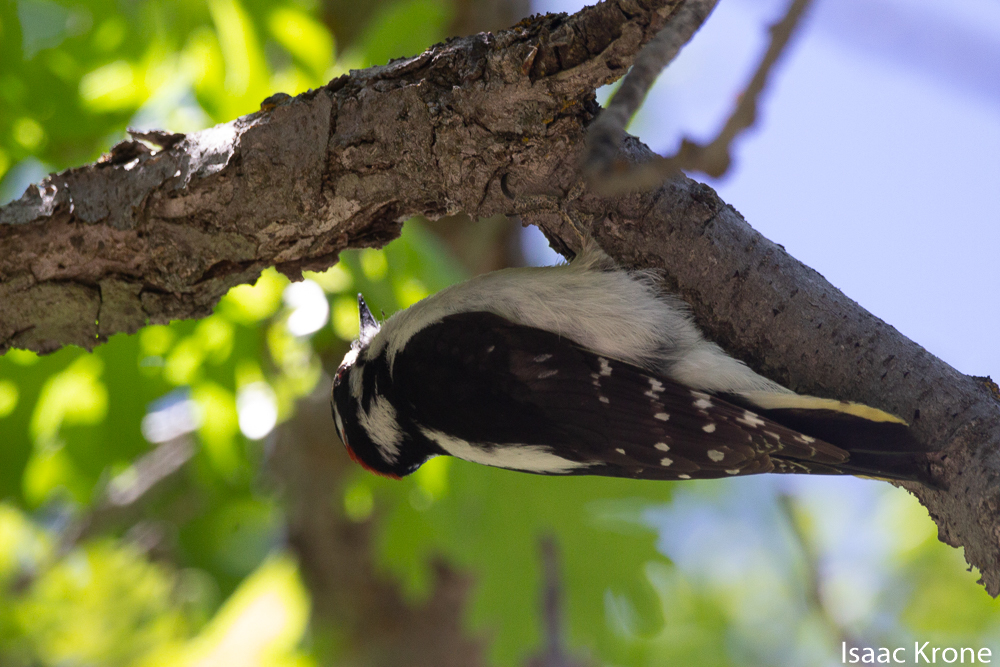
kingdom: Animalia
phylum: Chordata
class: Aves
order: Piciformes
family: Picidae
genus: Dryobates
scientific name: Dryobates pubescens
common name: Downy woodpecker
